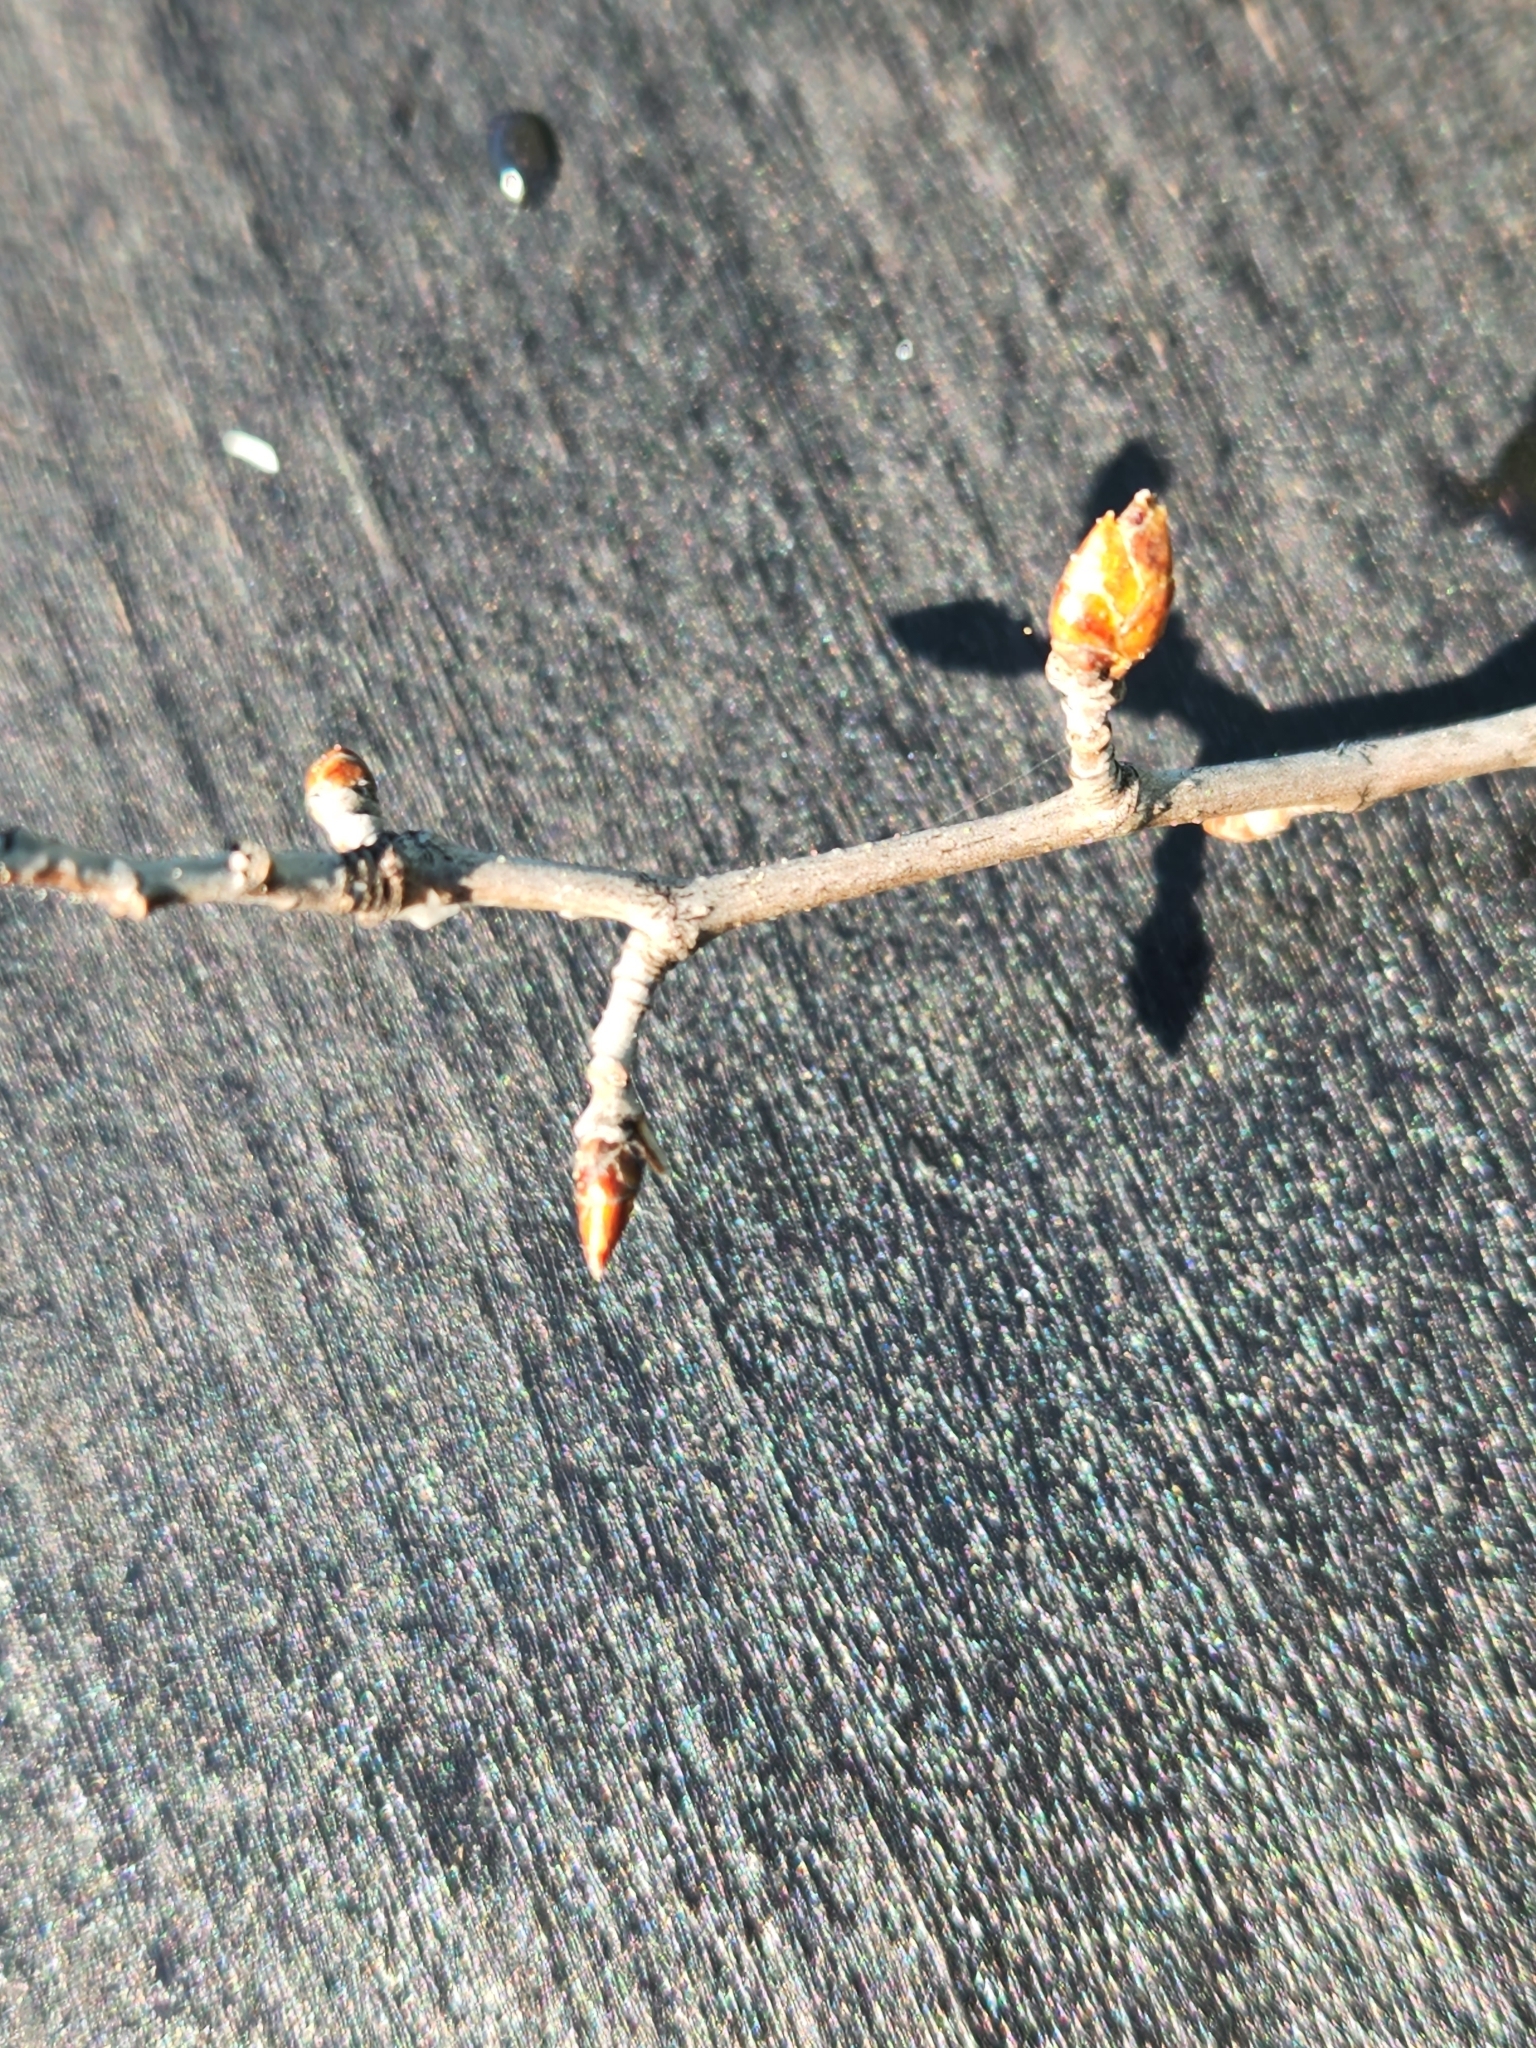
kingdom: Plantae
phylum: Tracheophyta
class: Magnoliopsida
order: Malpighiales
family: Salicaceae
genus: Populus
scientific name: Populus tremuloides
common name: Quaking aspen
